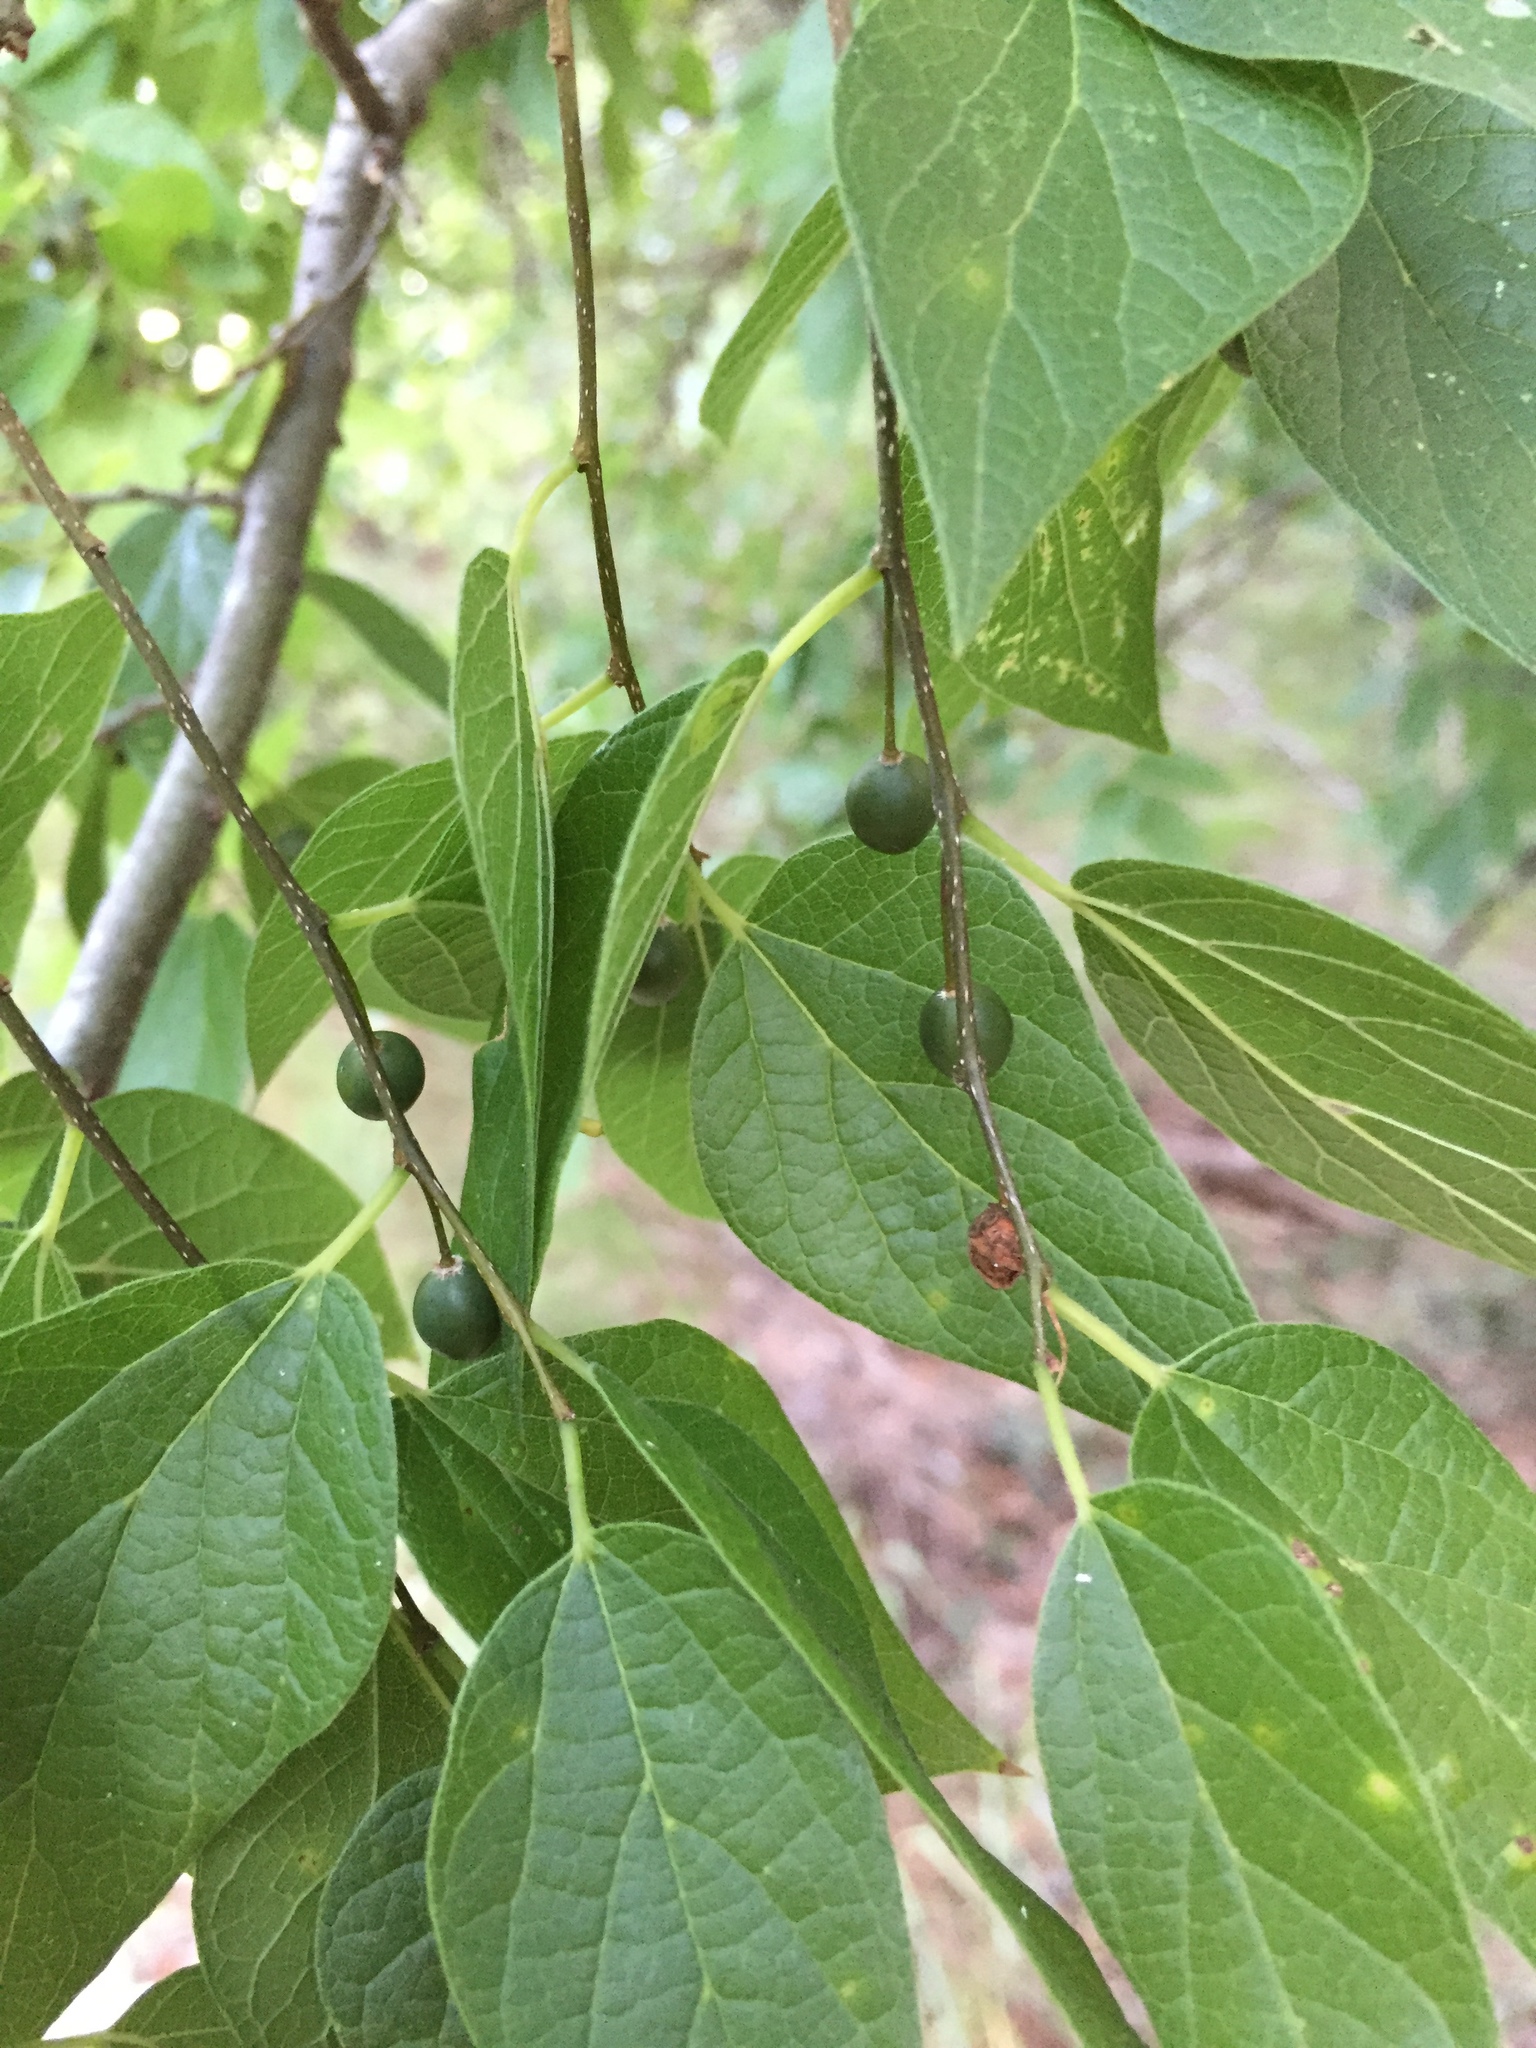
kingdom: Animalia
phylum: Arthropoda
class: Insecta
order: Hemiptera
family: Aphalaridae
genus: Pachypsylla
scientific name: Pachypsylla venusta
